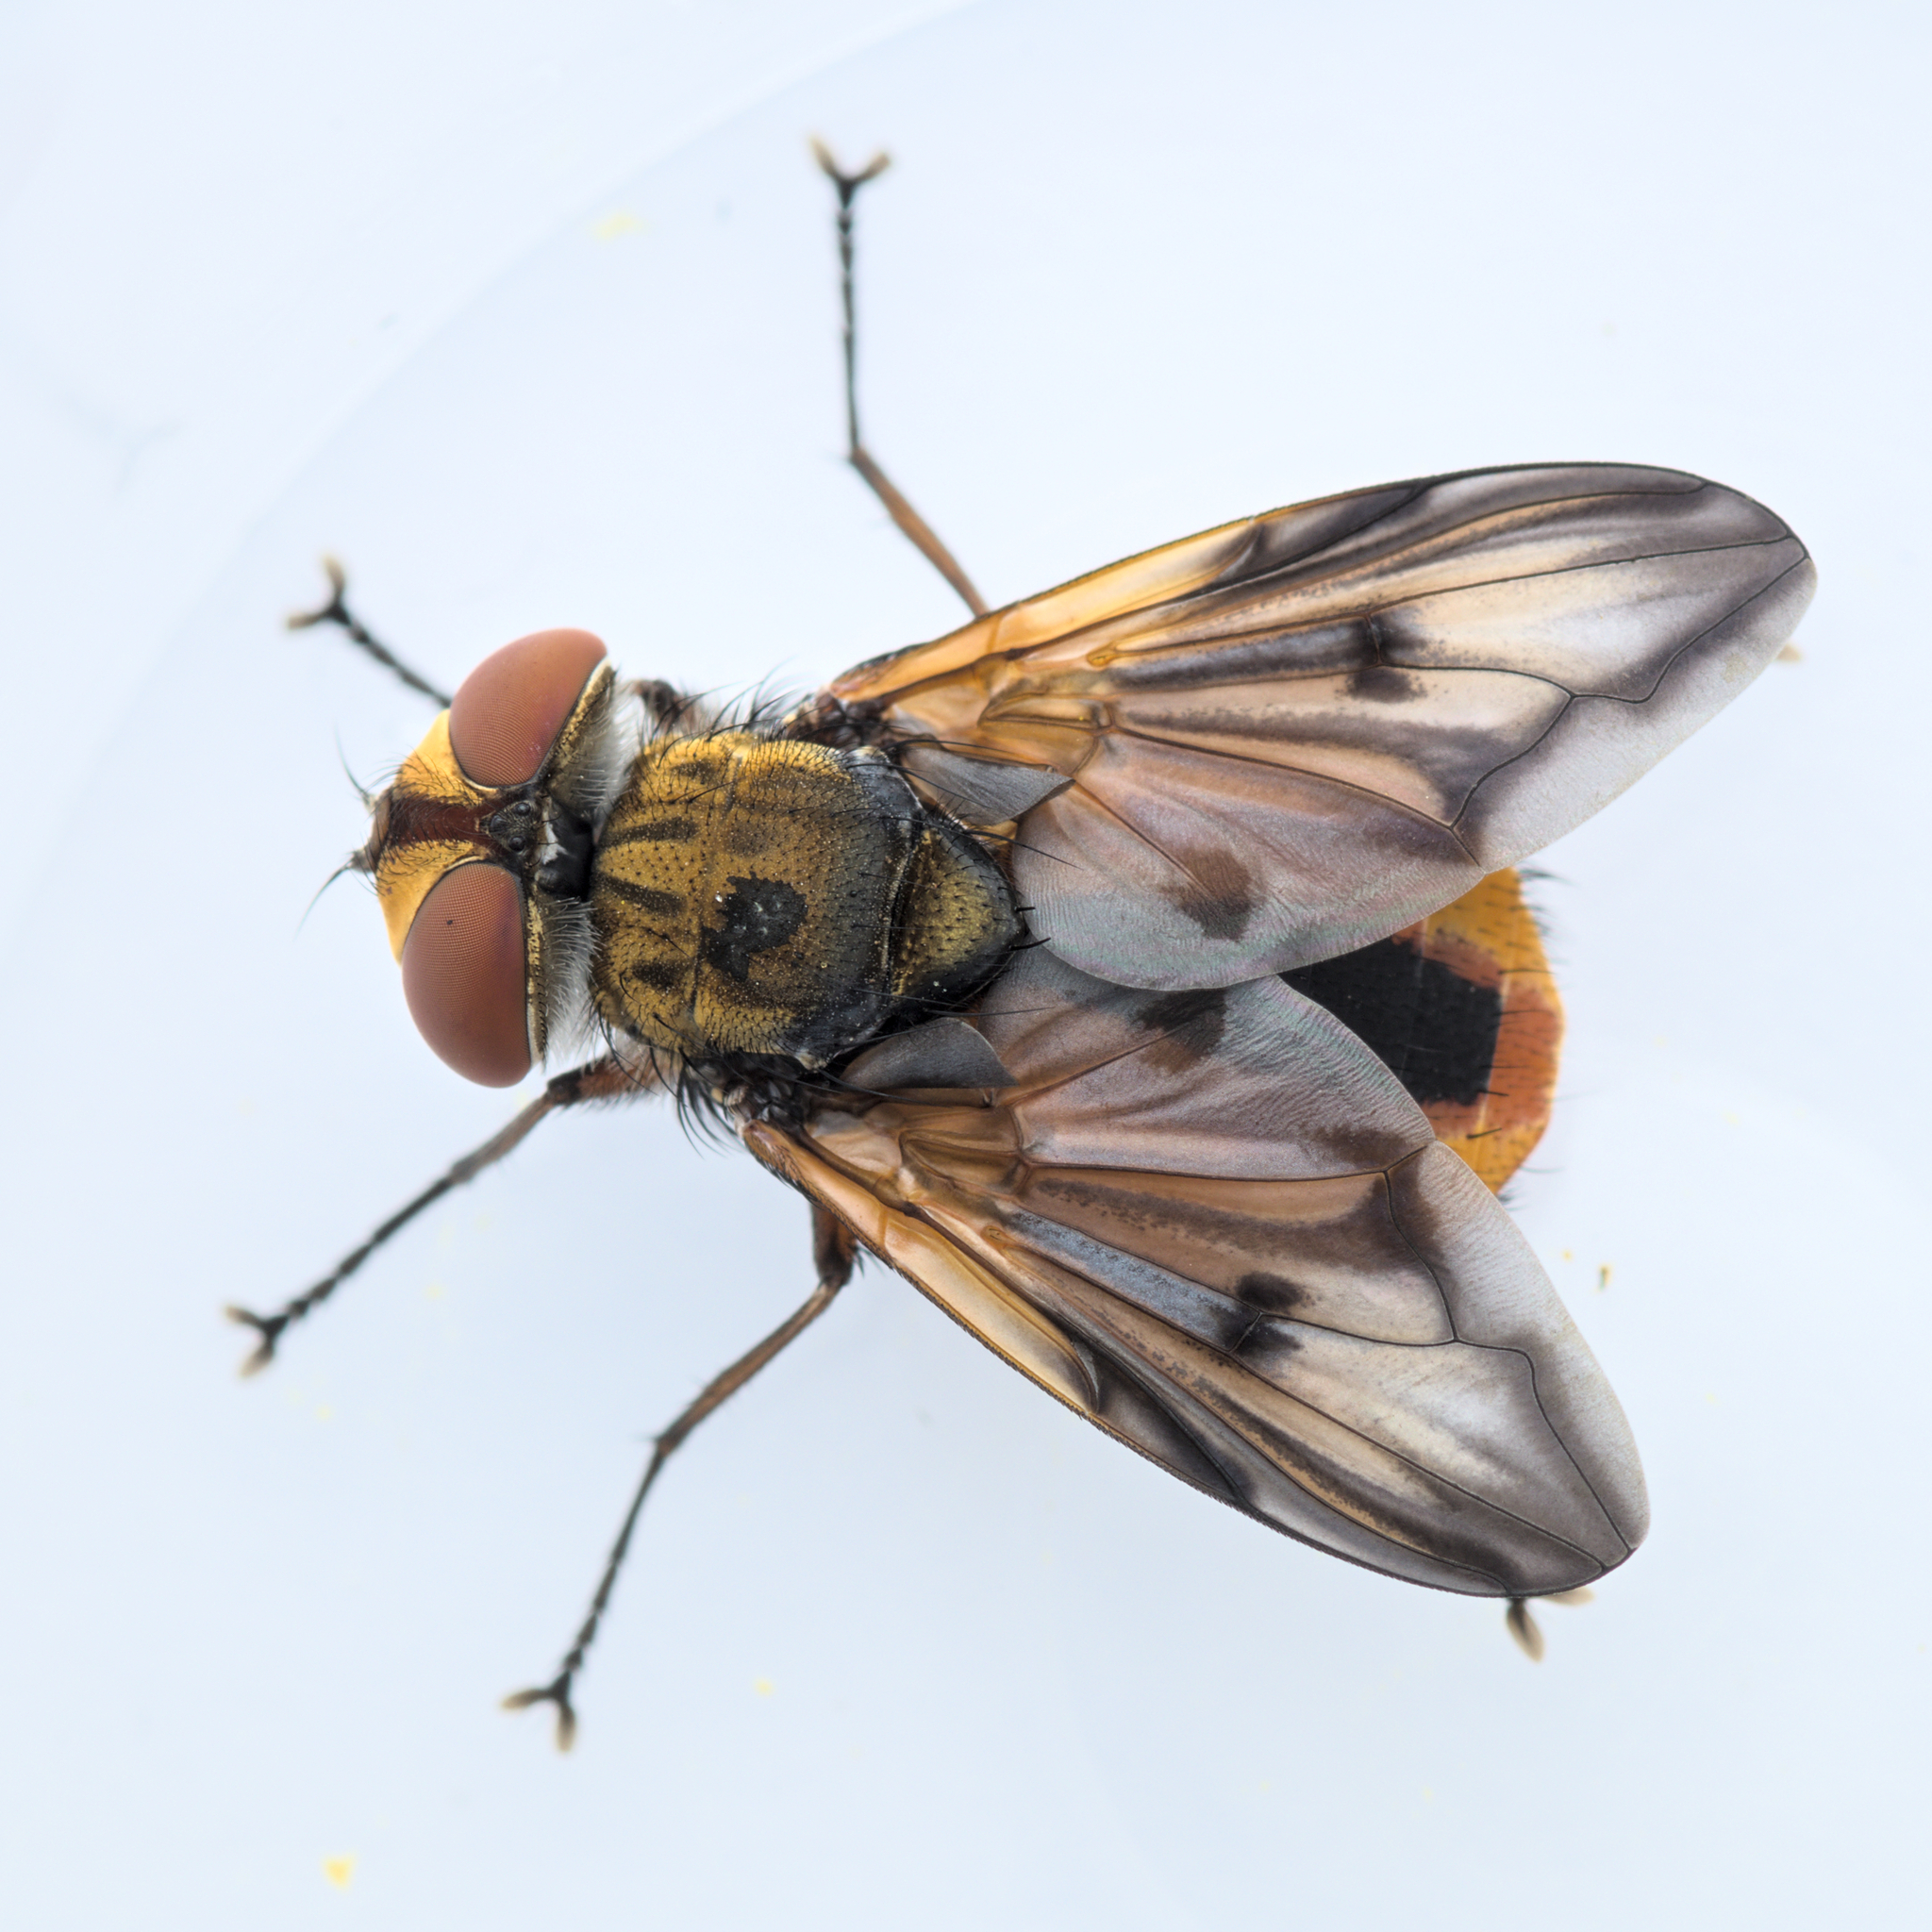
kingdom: Animalia
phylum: Arthropoda
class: Insecta
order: Diptera
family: Tachinidae
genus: Ectophasia
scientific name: Ectophasia crassipennis
